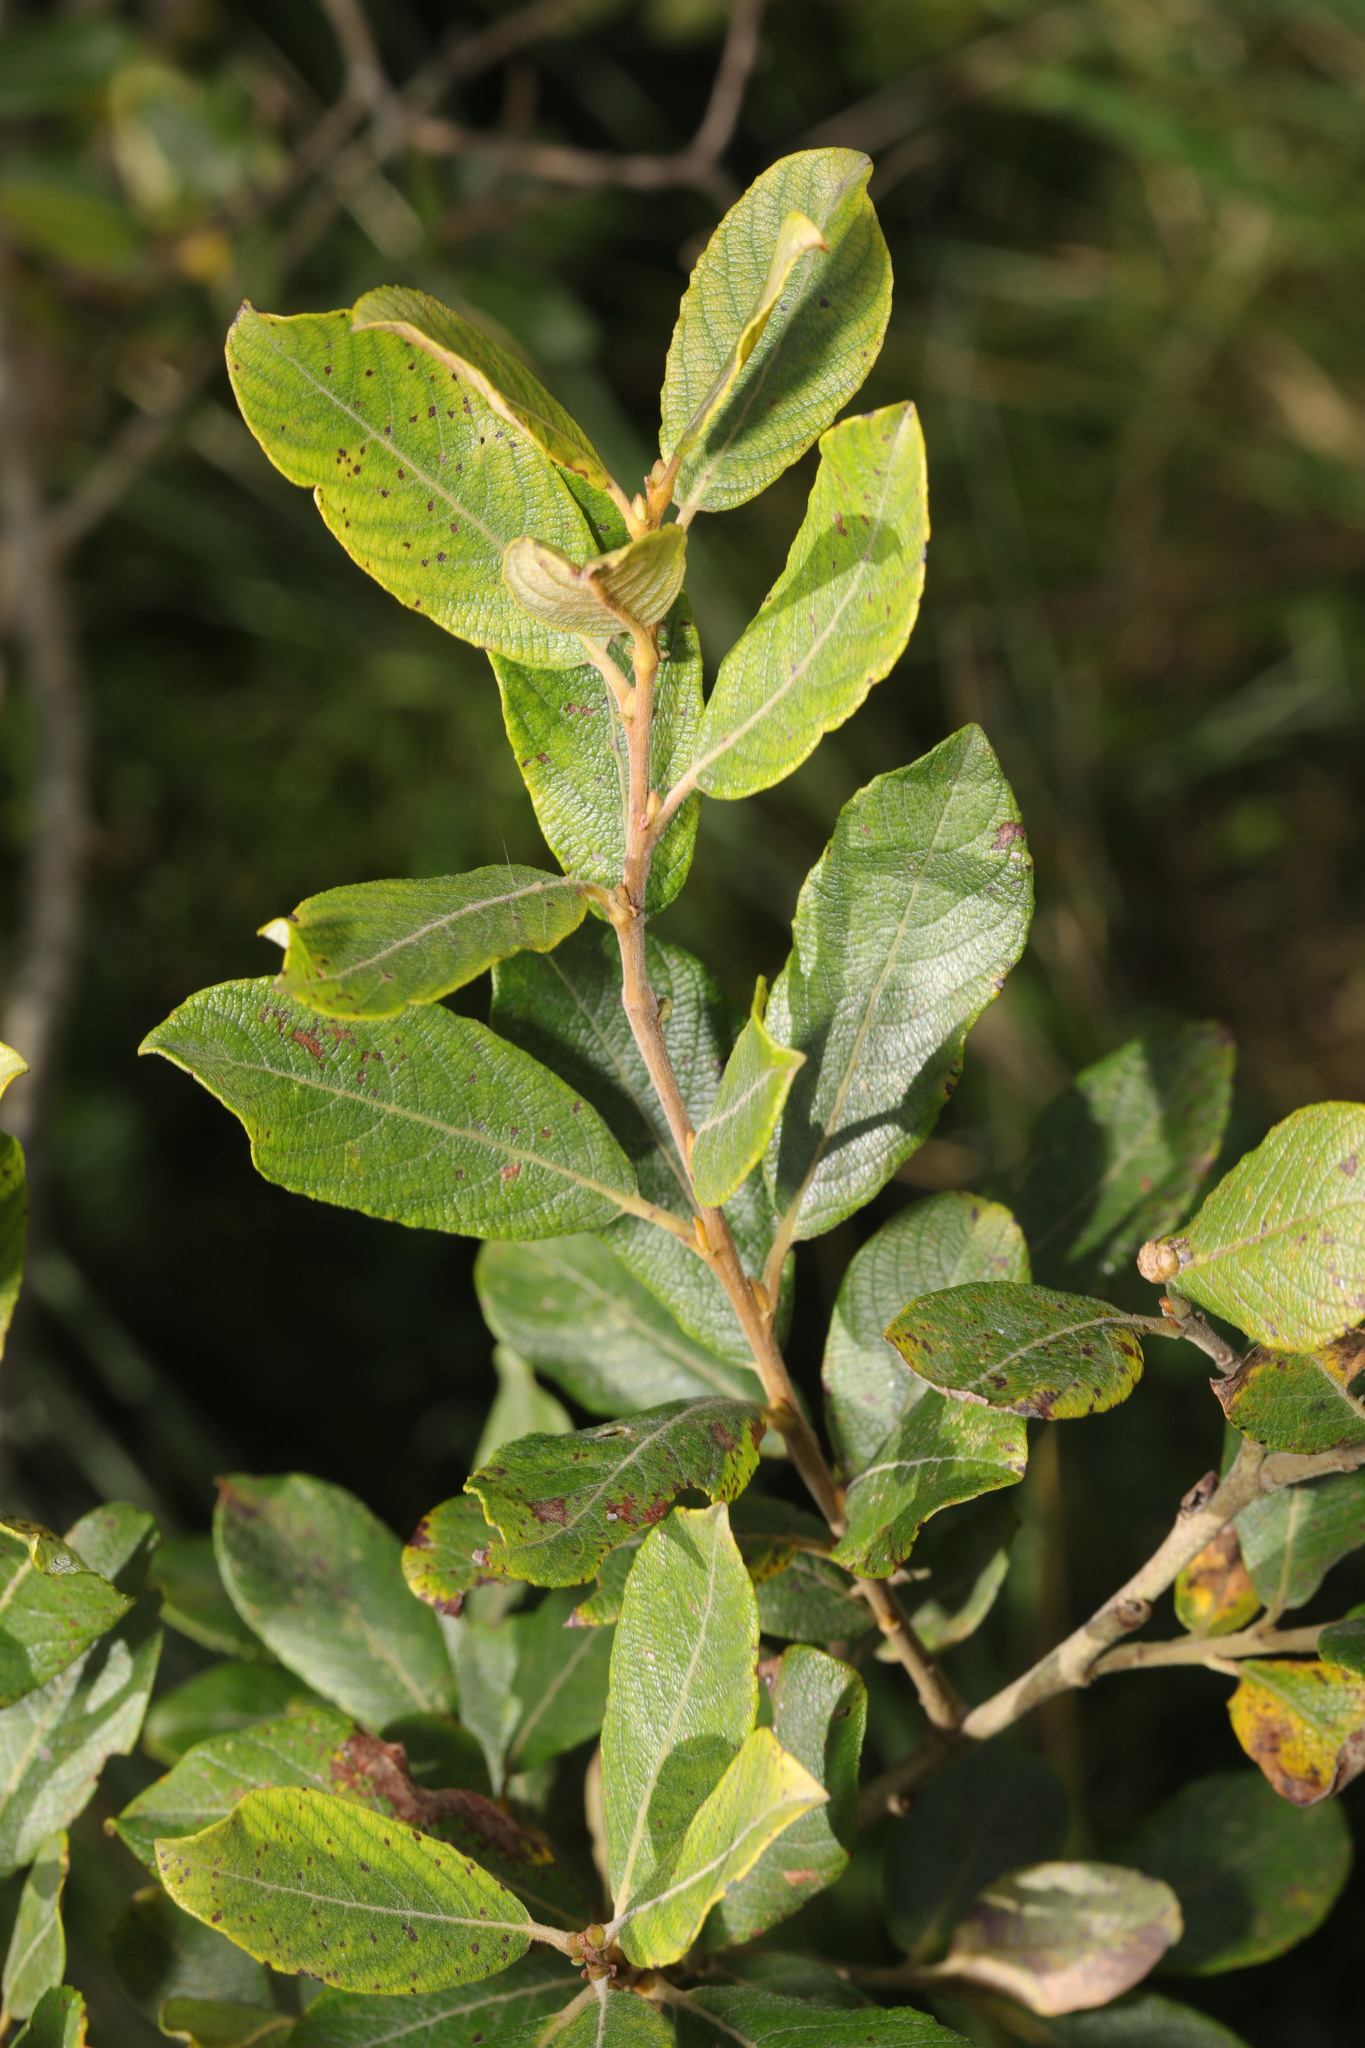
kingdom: Plantae
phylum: Tracheophyta
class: Magnoliopsida
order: Malpighiales
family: Salicaceae
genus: Salix
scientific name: Salix cinerea
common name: Common sallow
